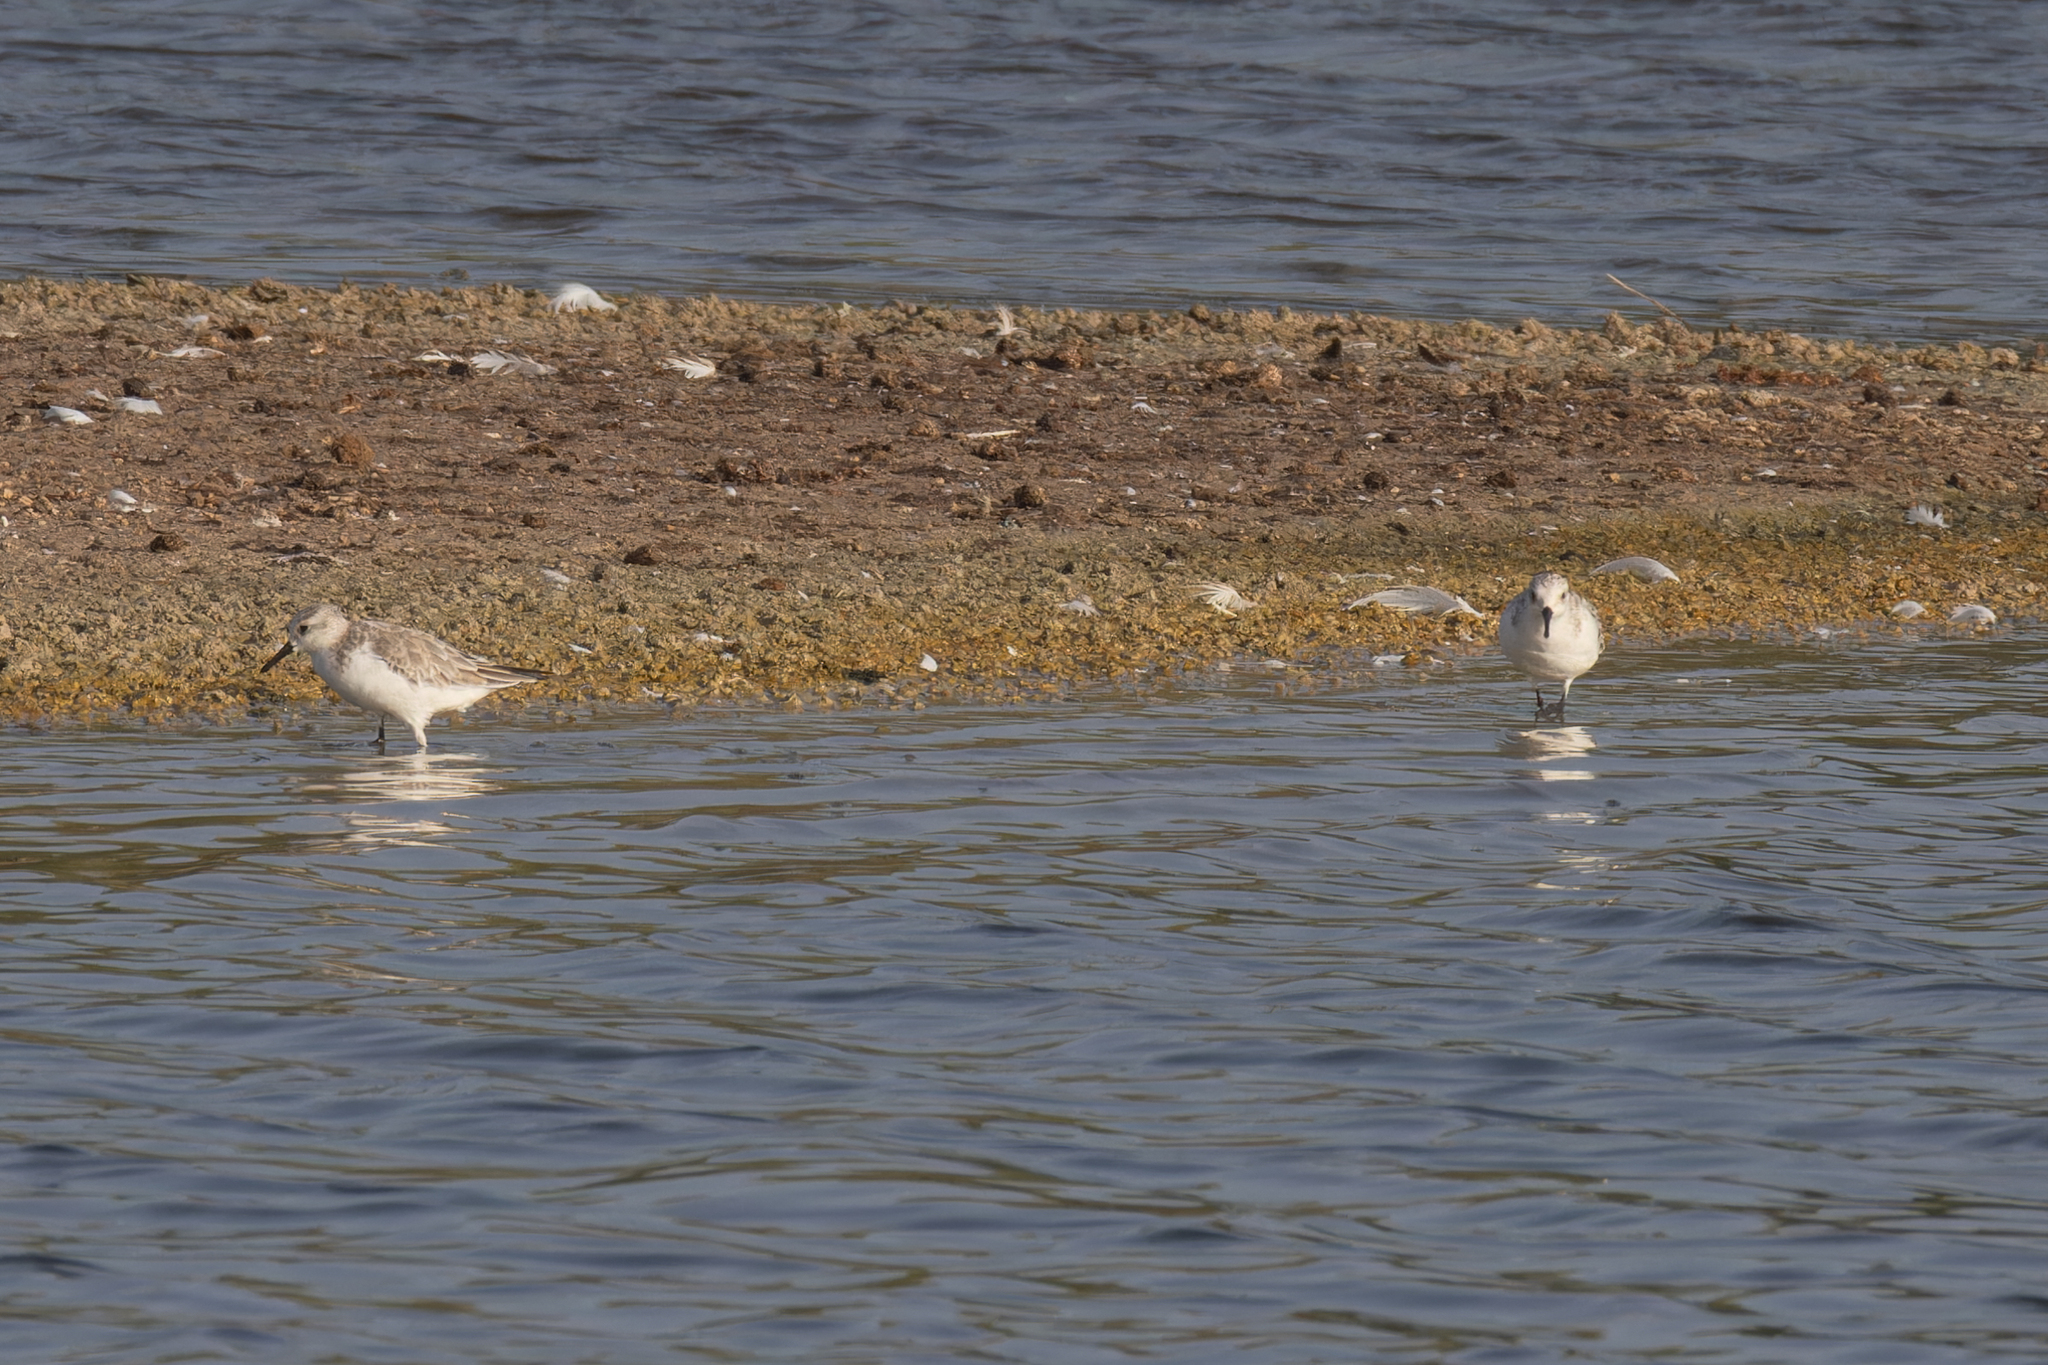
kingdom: Animalia
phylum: Chordata
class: Aves
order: Charadriiformes
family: Scolopacidae
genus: Calidris
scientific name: Calidris alba
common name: Sanderling
